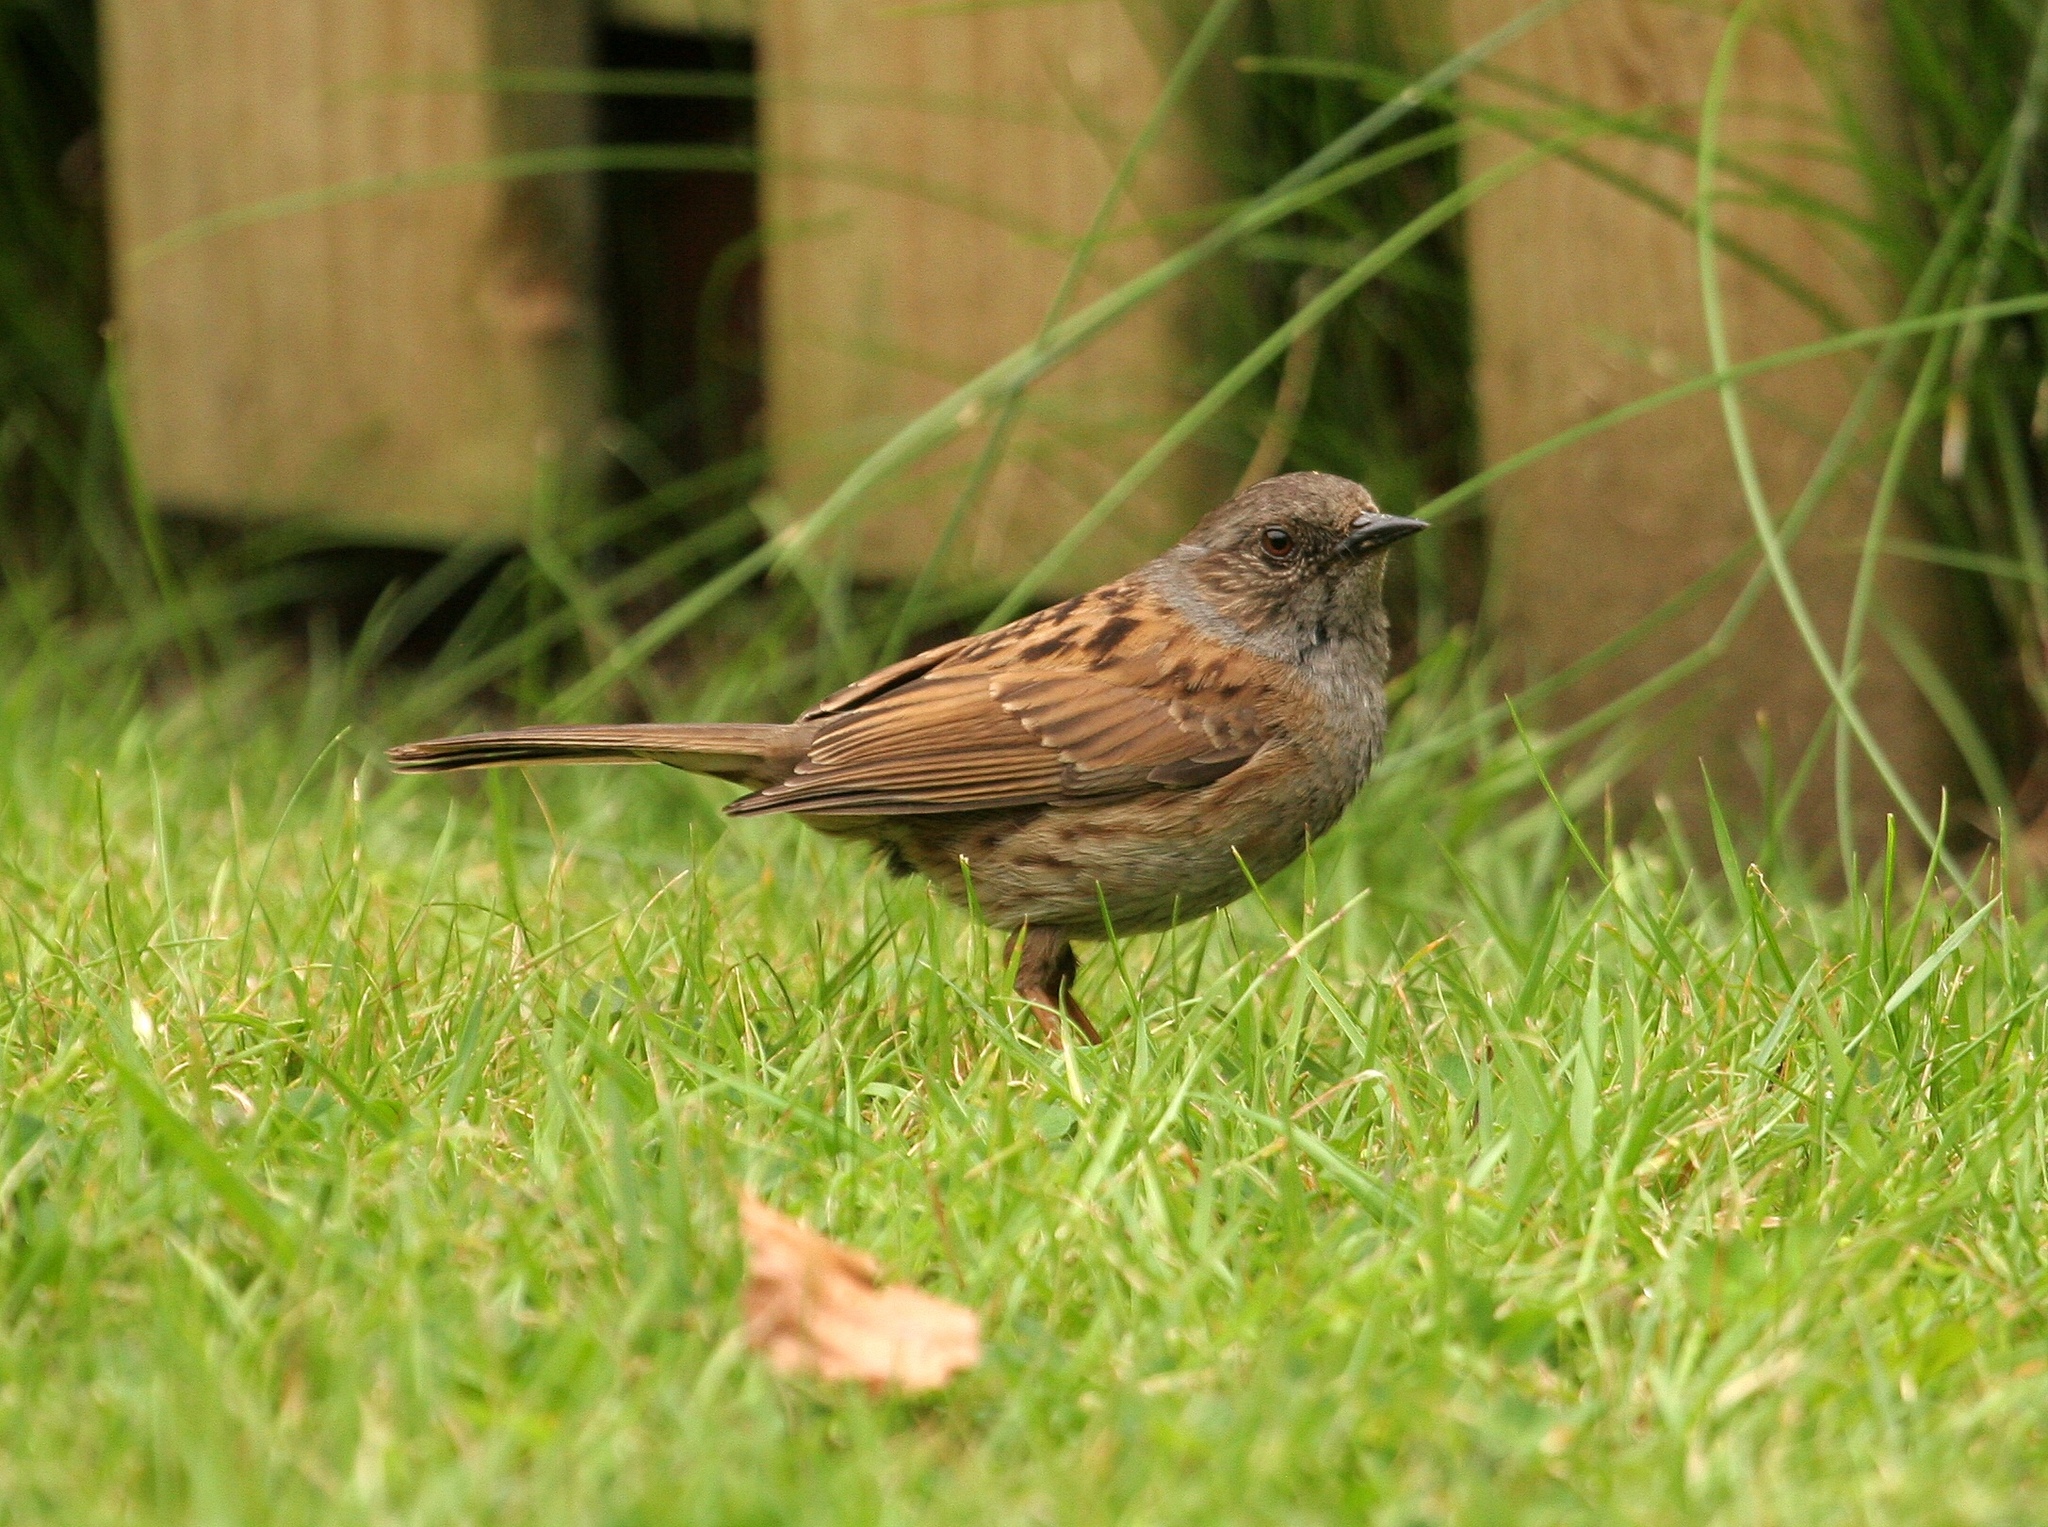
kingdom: Animalia
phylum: Chordata
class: Aves
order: Passeriformes
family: Prunellidae
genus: Prunella
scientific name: Prunella modularis
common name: Dunnock
